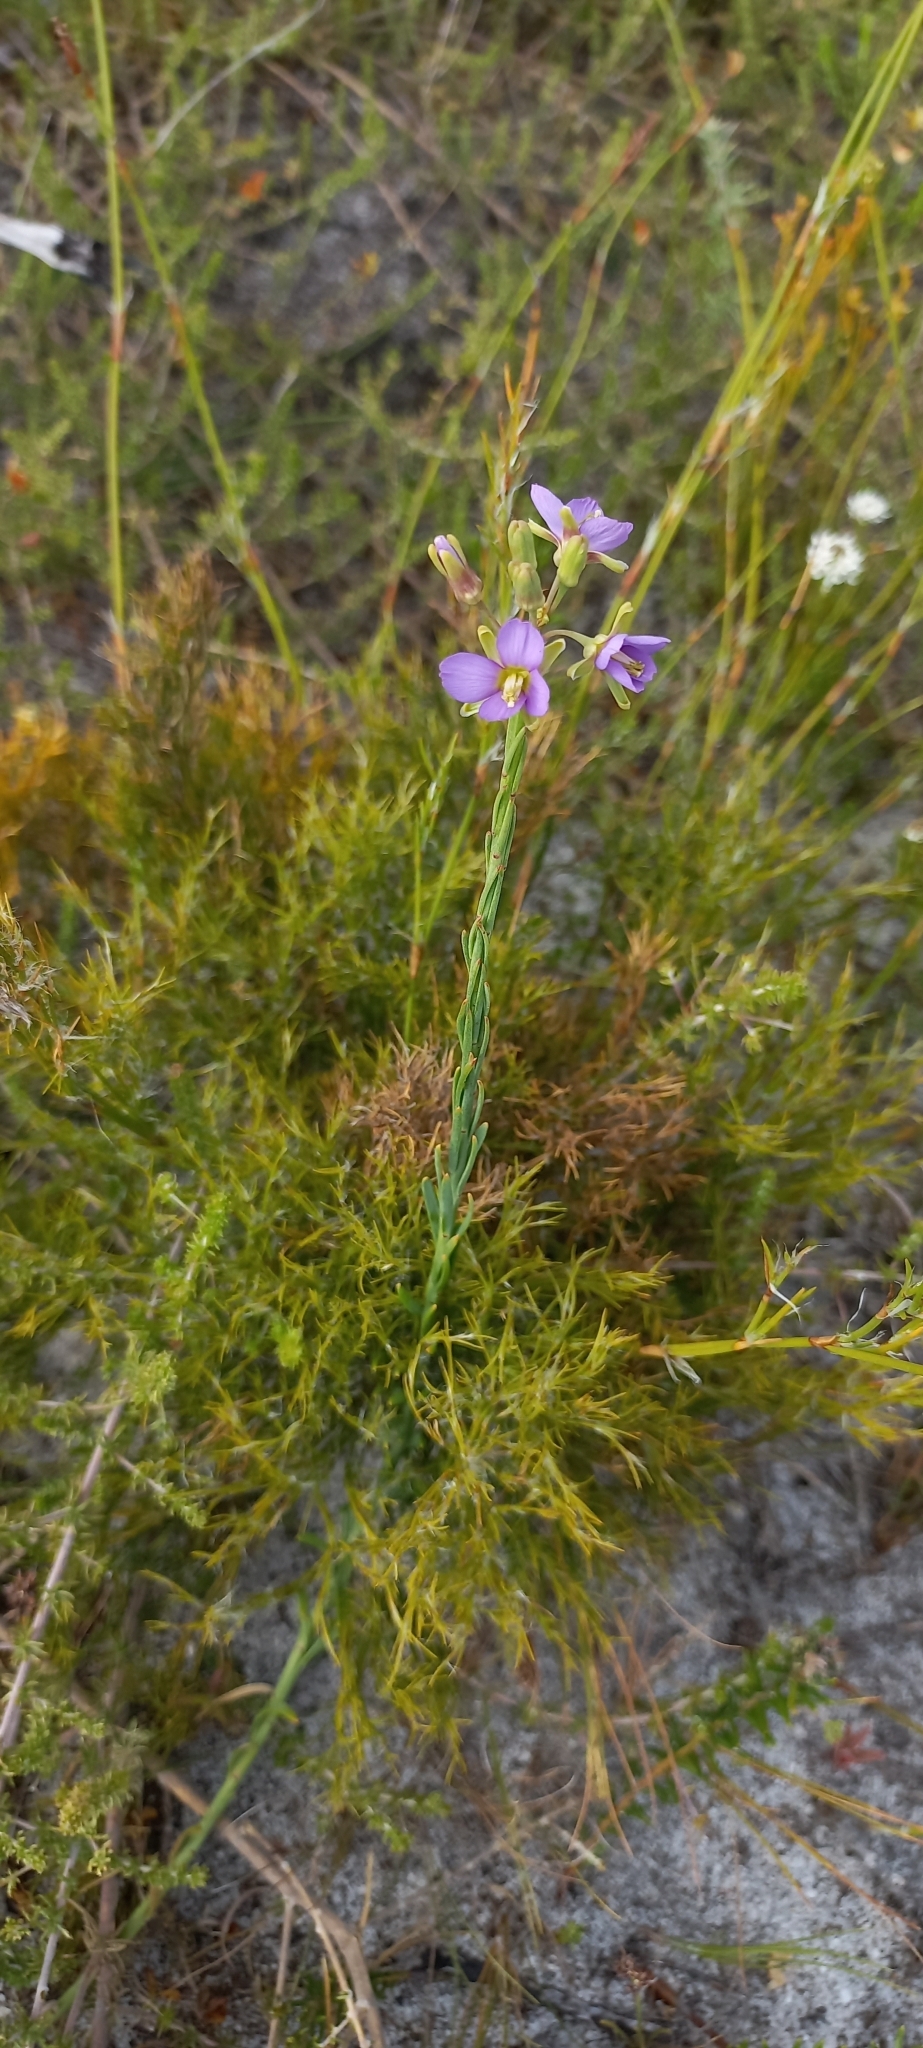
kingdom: Plantae
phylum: Tracheophyta
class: Magnoliopsida
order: Brassicales
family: Brassicaceae
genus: Heliophila
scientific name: Heliophila linearis
